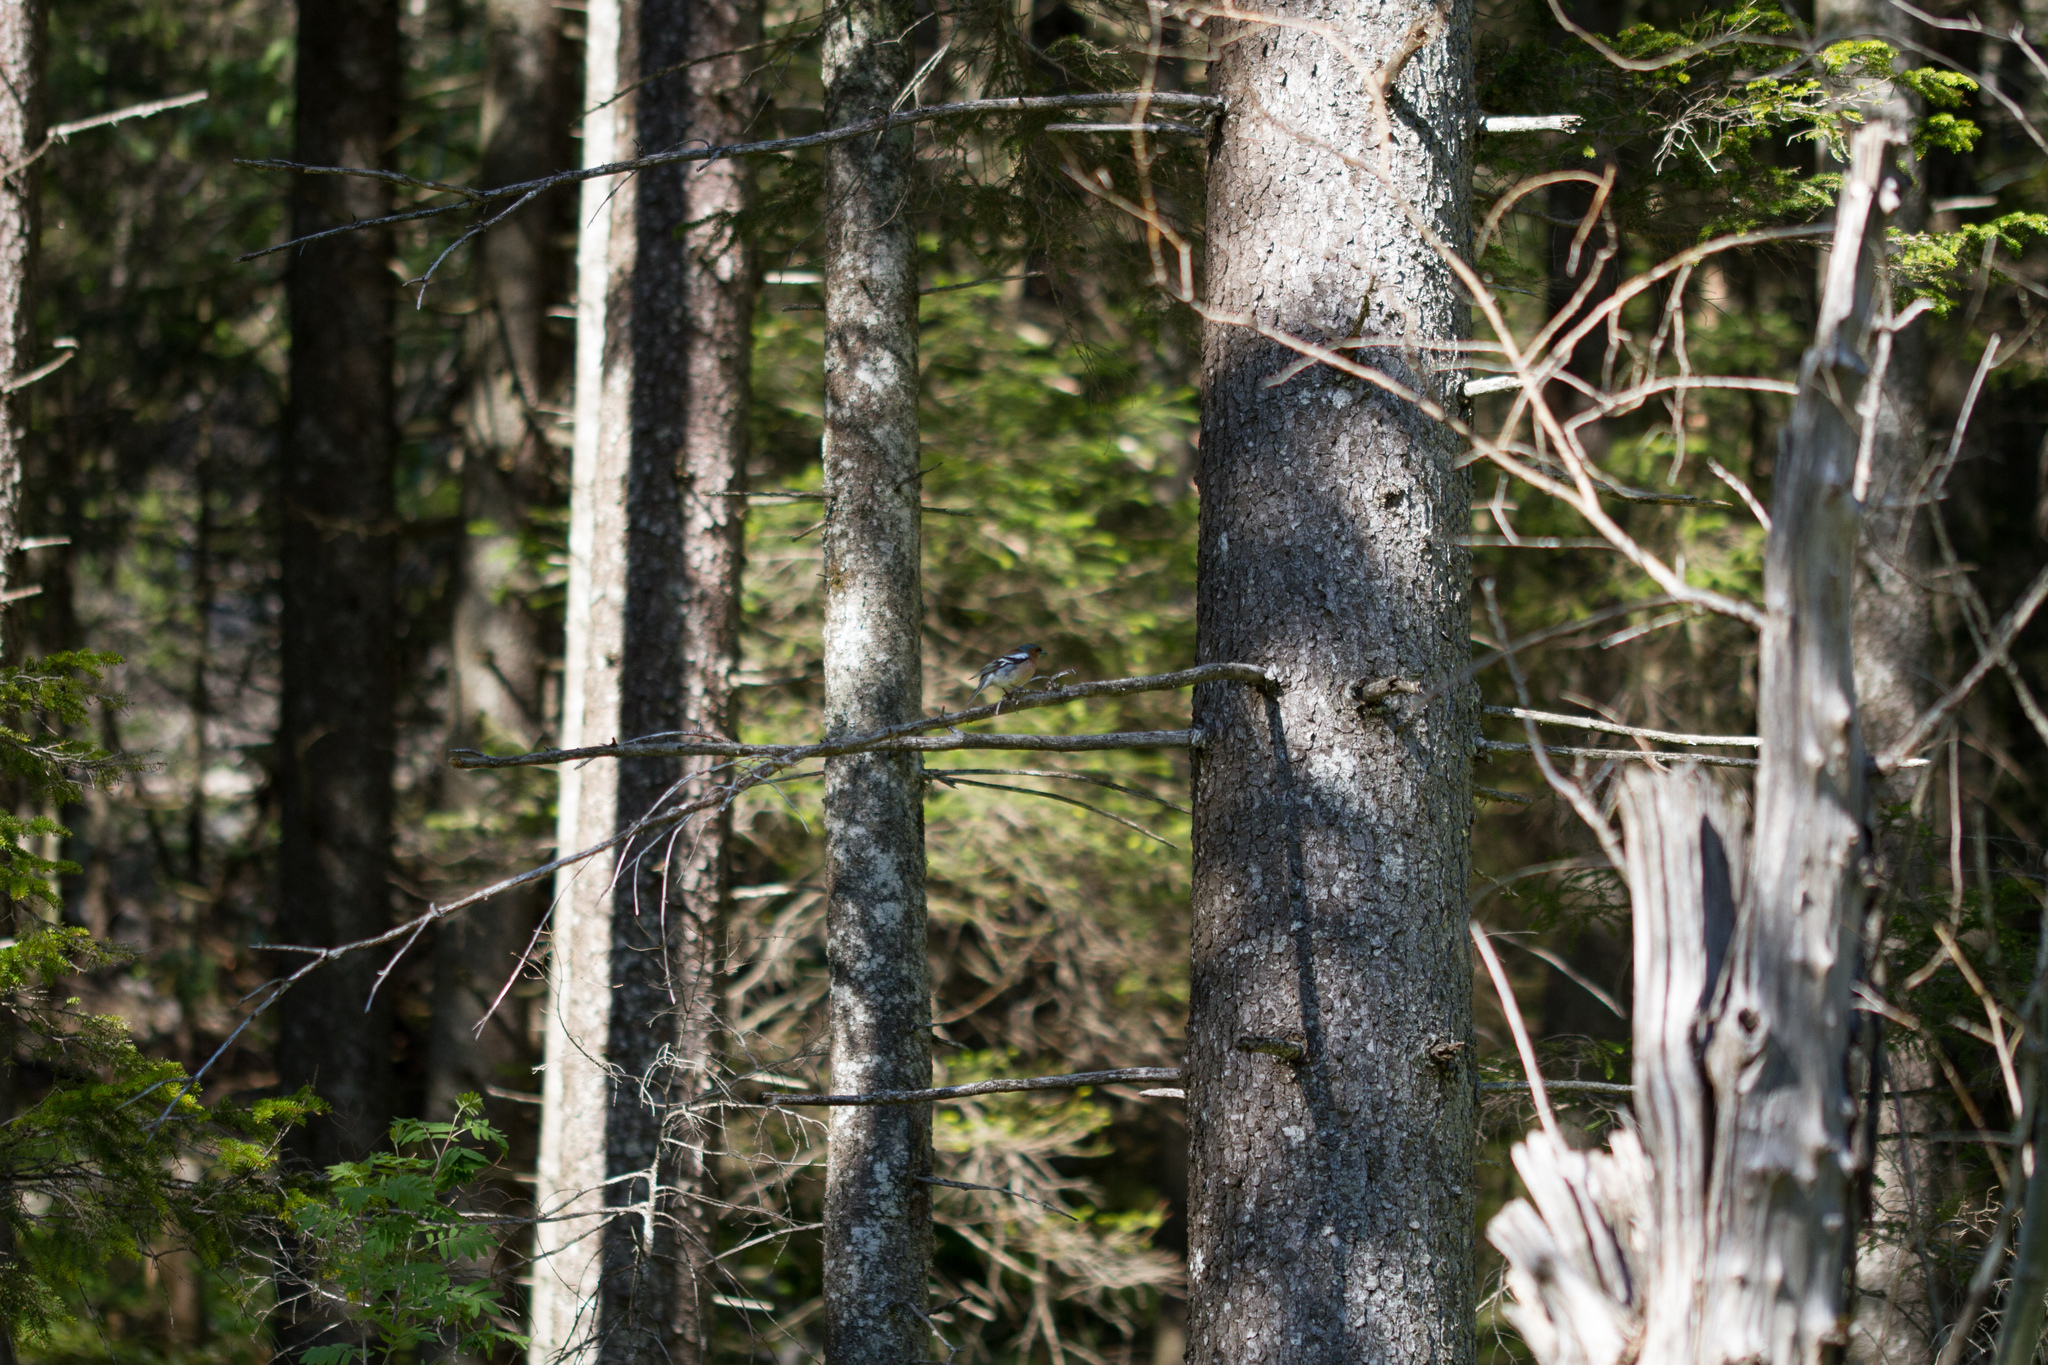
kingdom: Animalia
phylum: Chordata
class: Aves
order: Passeriformes
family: Fringillidae
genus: Fringilla
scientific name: Fringilla coelebs
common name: Common chaffinch
